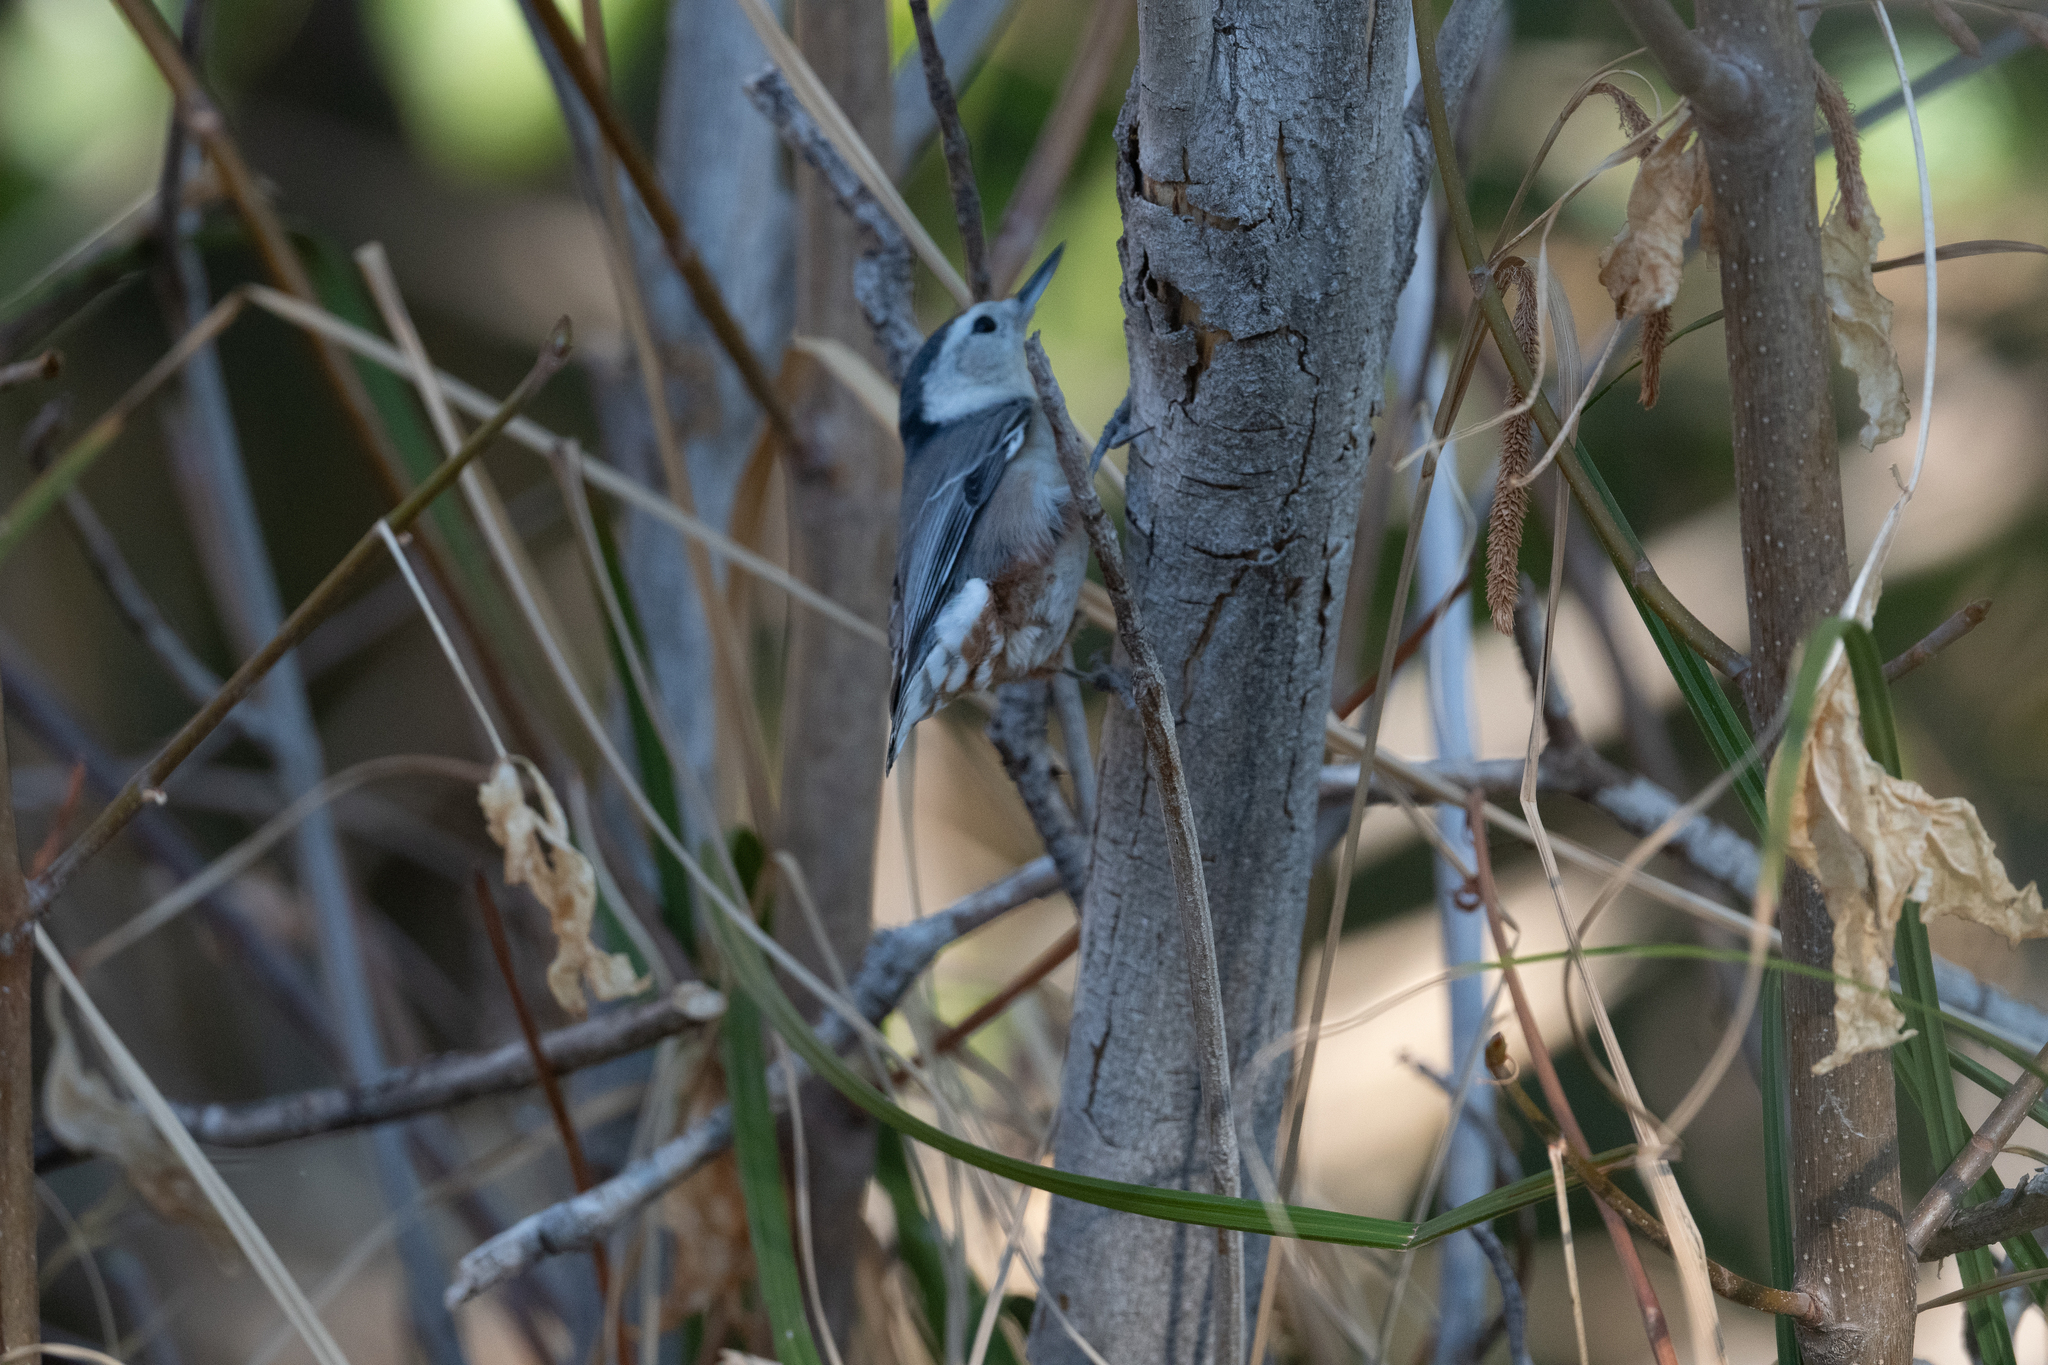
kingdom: Animalia
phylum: Chordata
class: Aves
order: Passeriformes
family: Sittidae
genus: Sitta
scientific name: Sitta carolinensis
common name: White-breasted nuthatch
